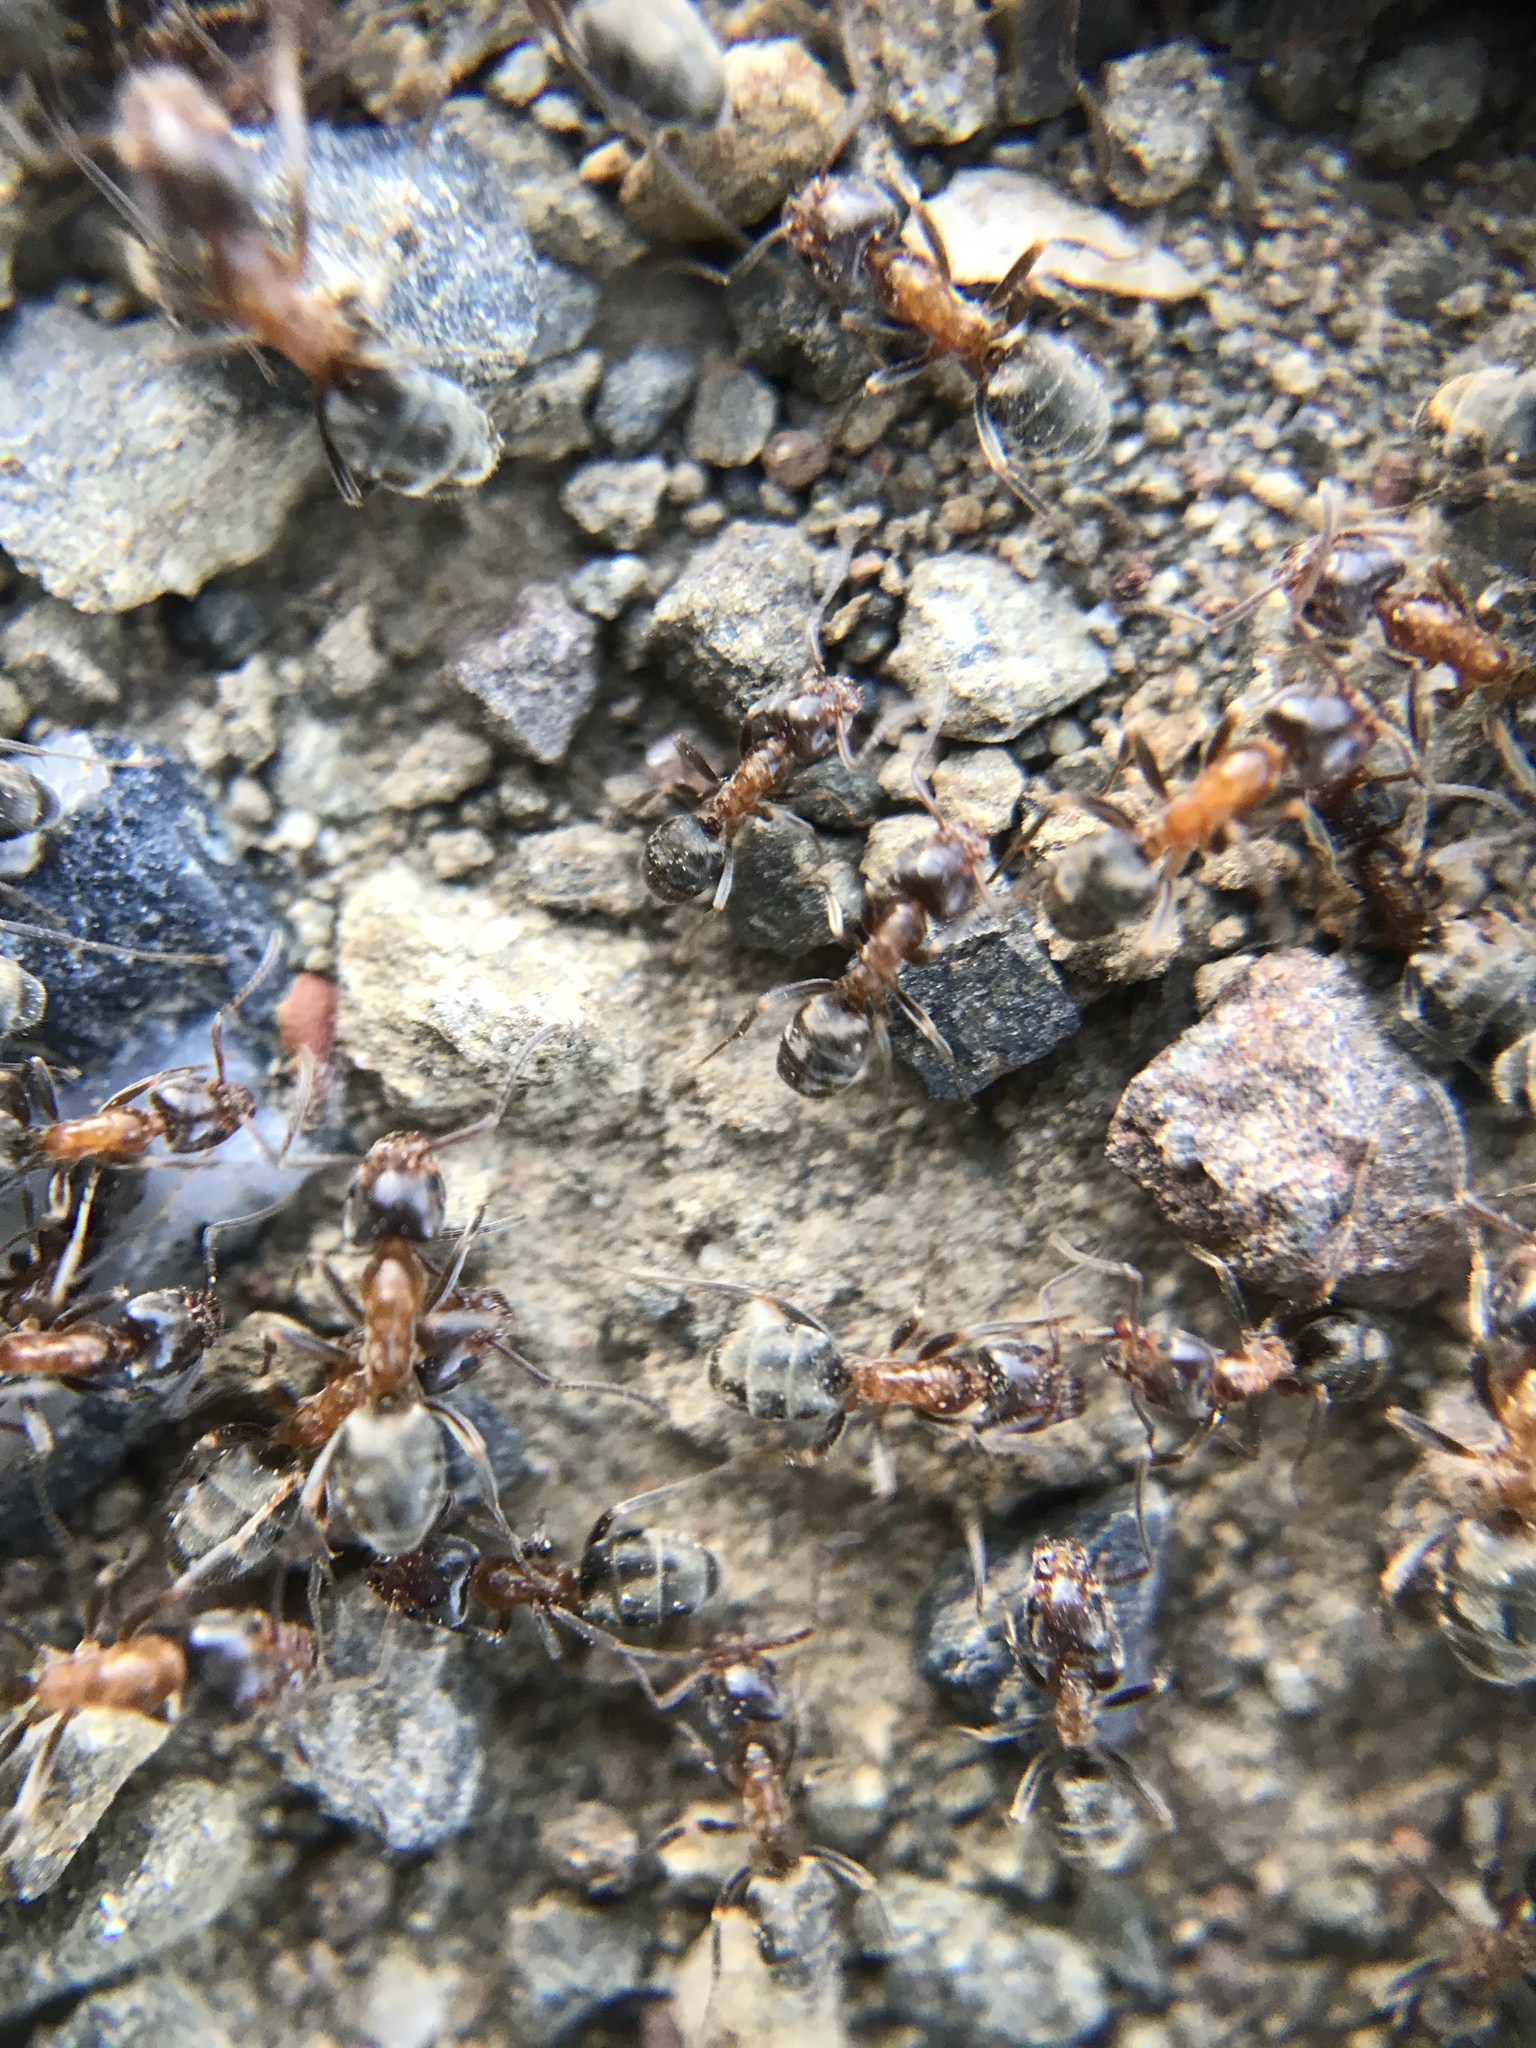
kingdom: Animalia
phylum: Arthropoda
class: Insecta
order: Hymenoptera
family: Formicidae
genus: Liometopum
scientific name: Liometopum occidentale
